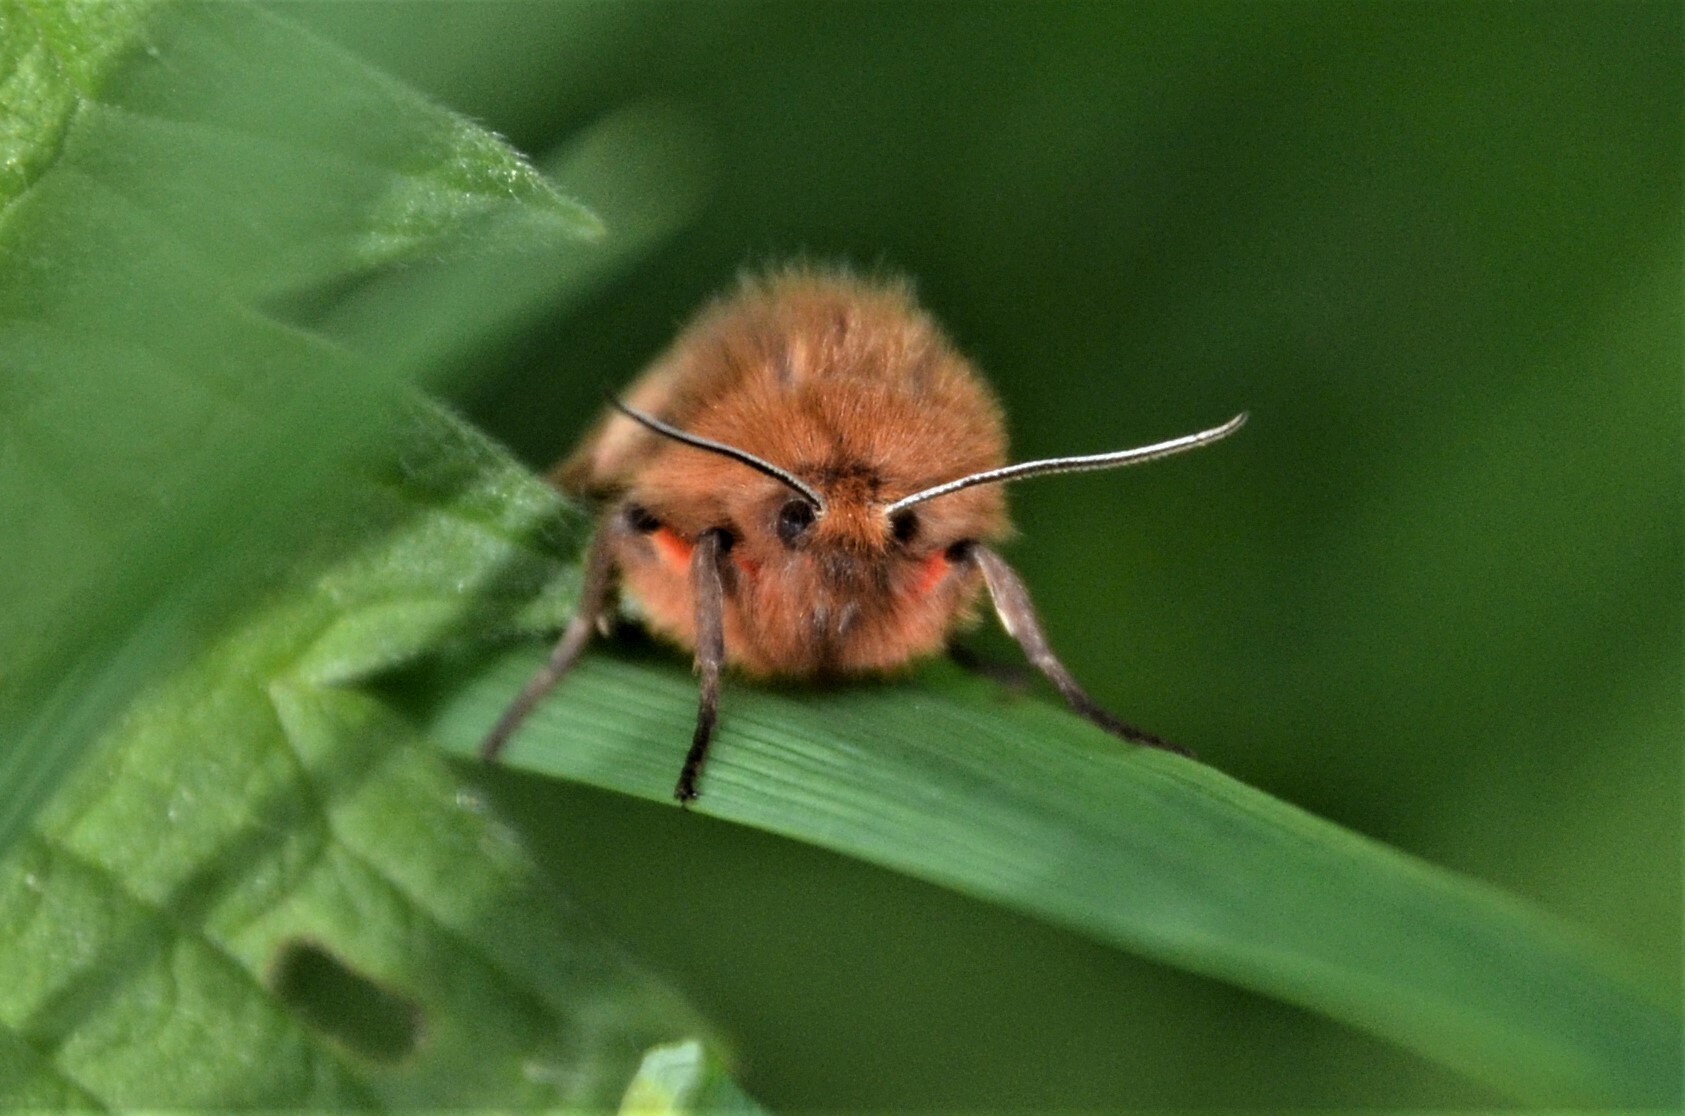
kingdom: Animalia
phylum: Arthropoda
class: Insecta
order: Lepidoptera
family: Erebidae
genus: Phragmatobia
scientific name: Phragmatobia fuliginosa
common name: Ruby tiger
